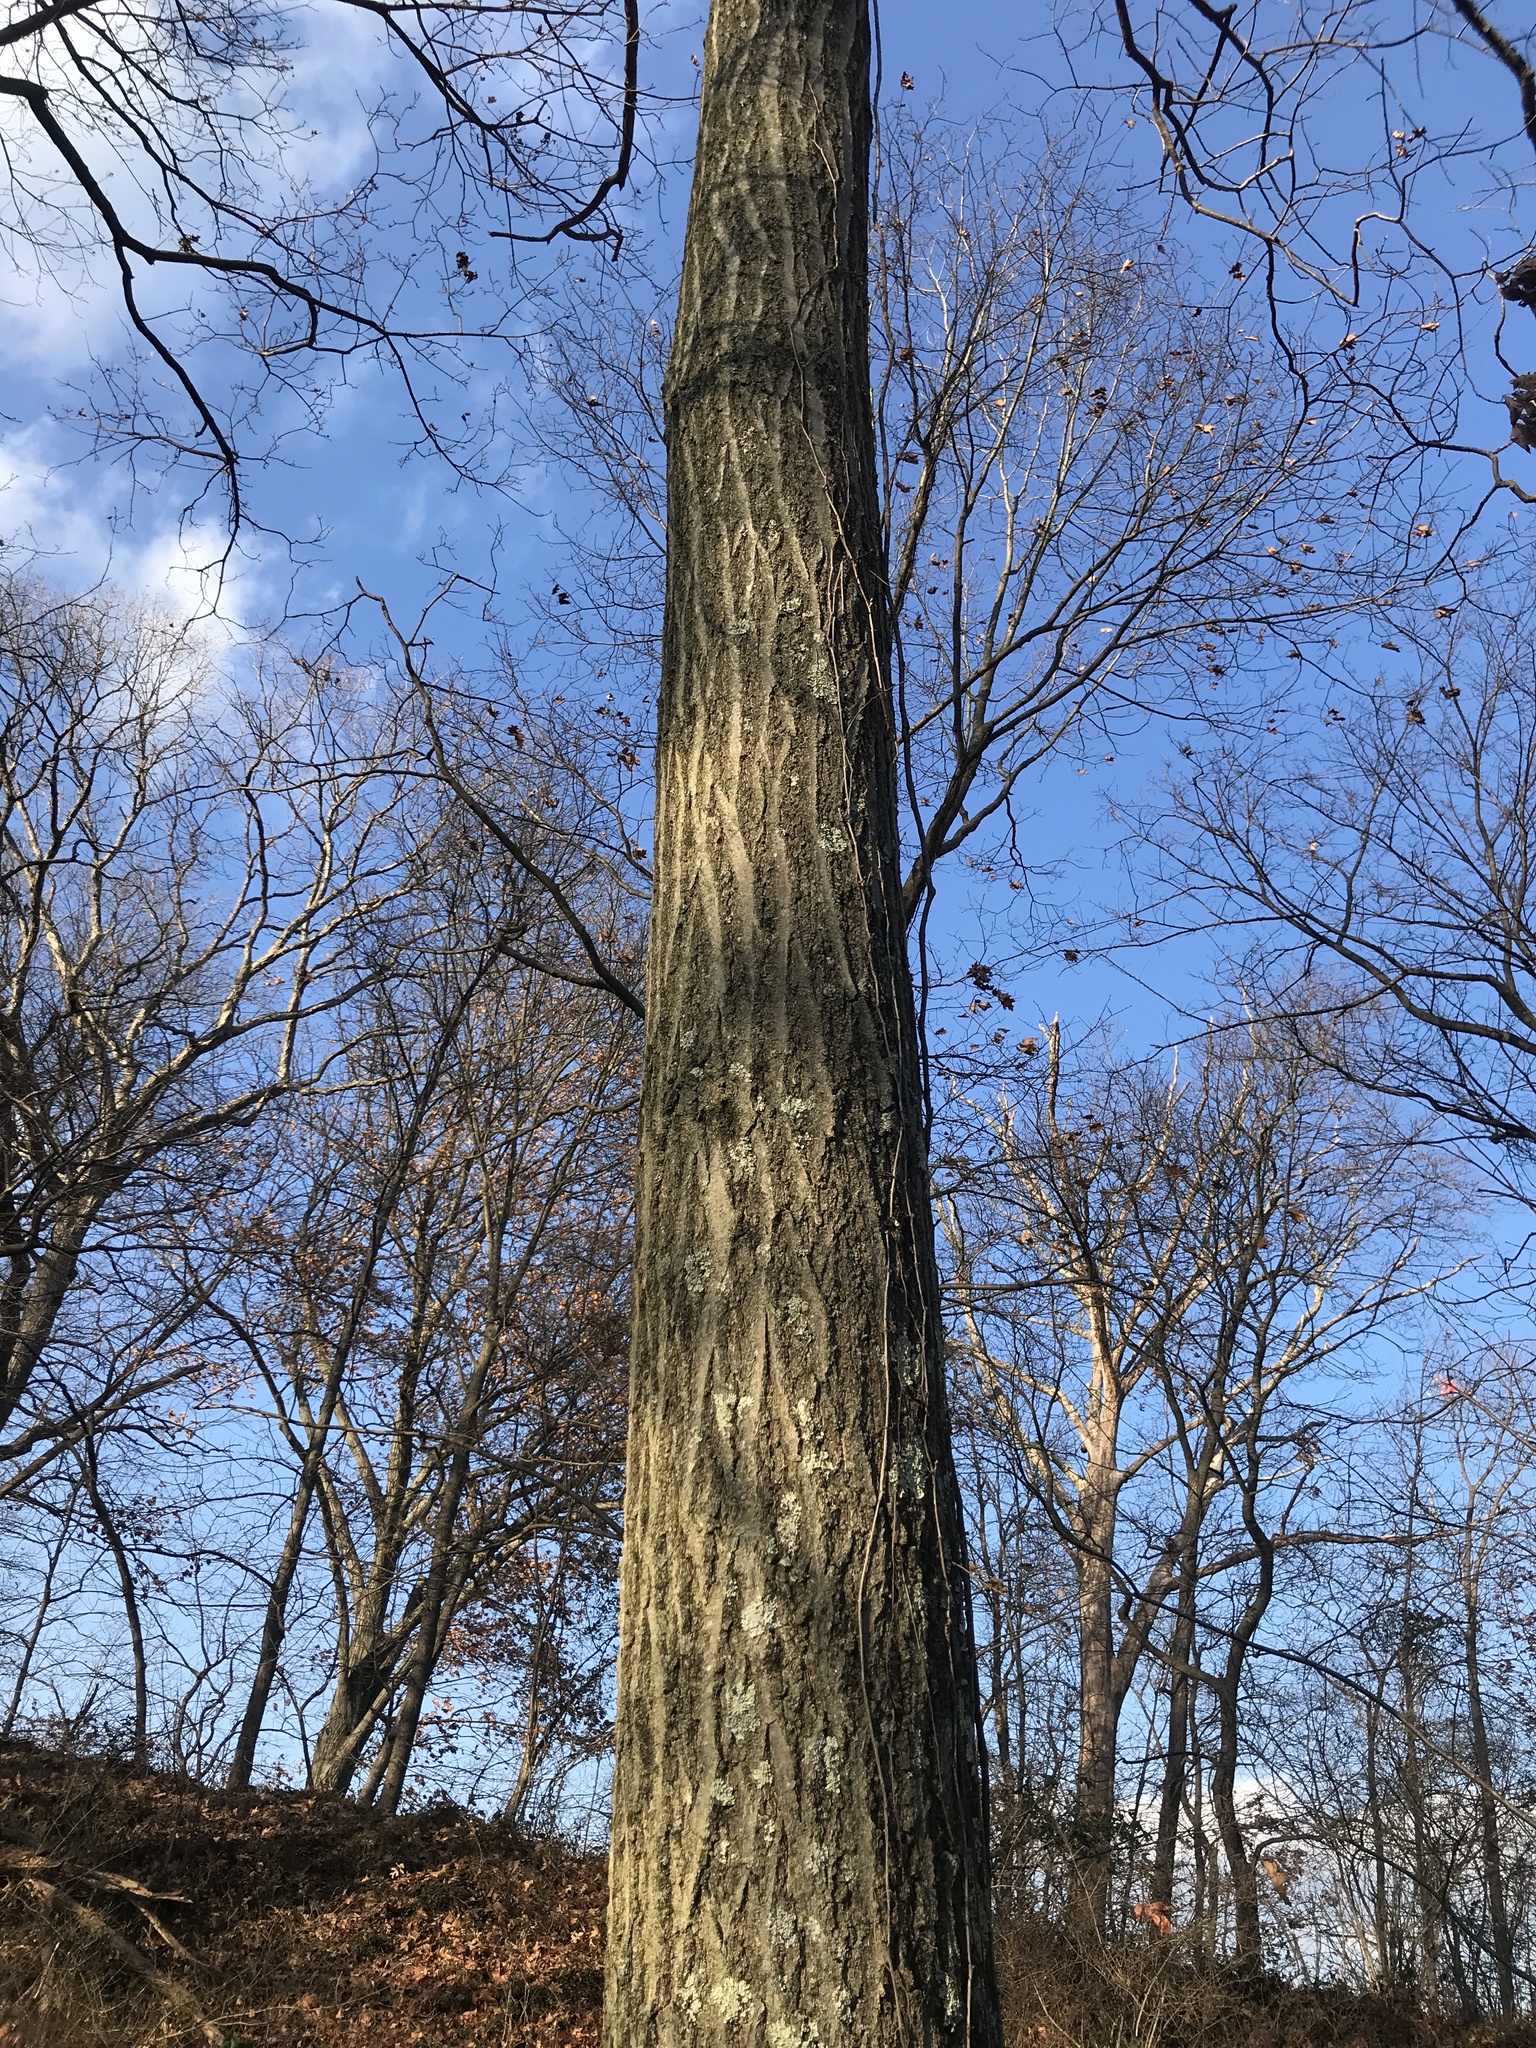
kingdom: Plantae
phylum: Tracheophyta
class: Magnoliopsida
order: Fagales
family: Fagaceae
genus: Quercus
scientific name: Quercus rubra
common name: Red oak
